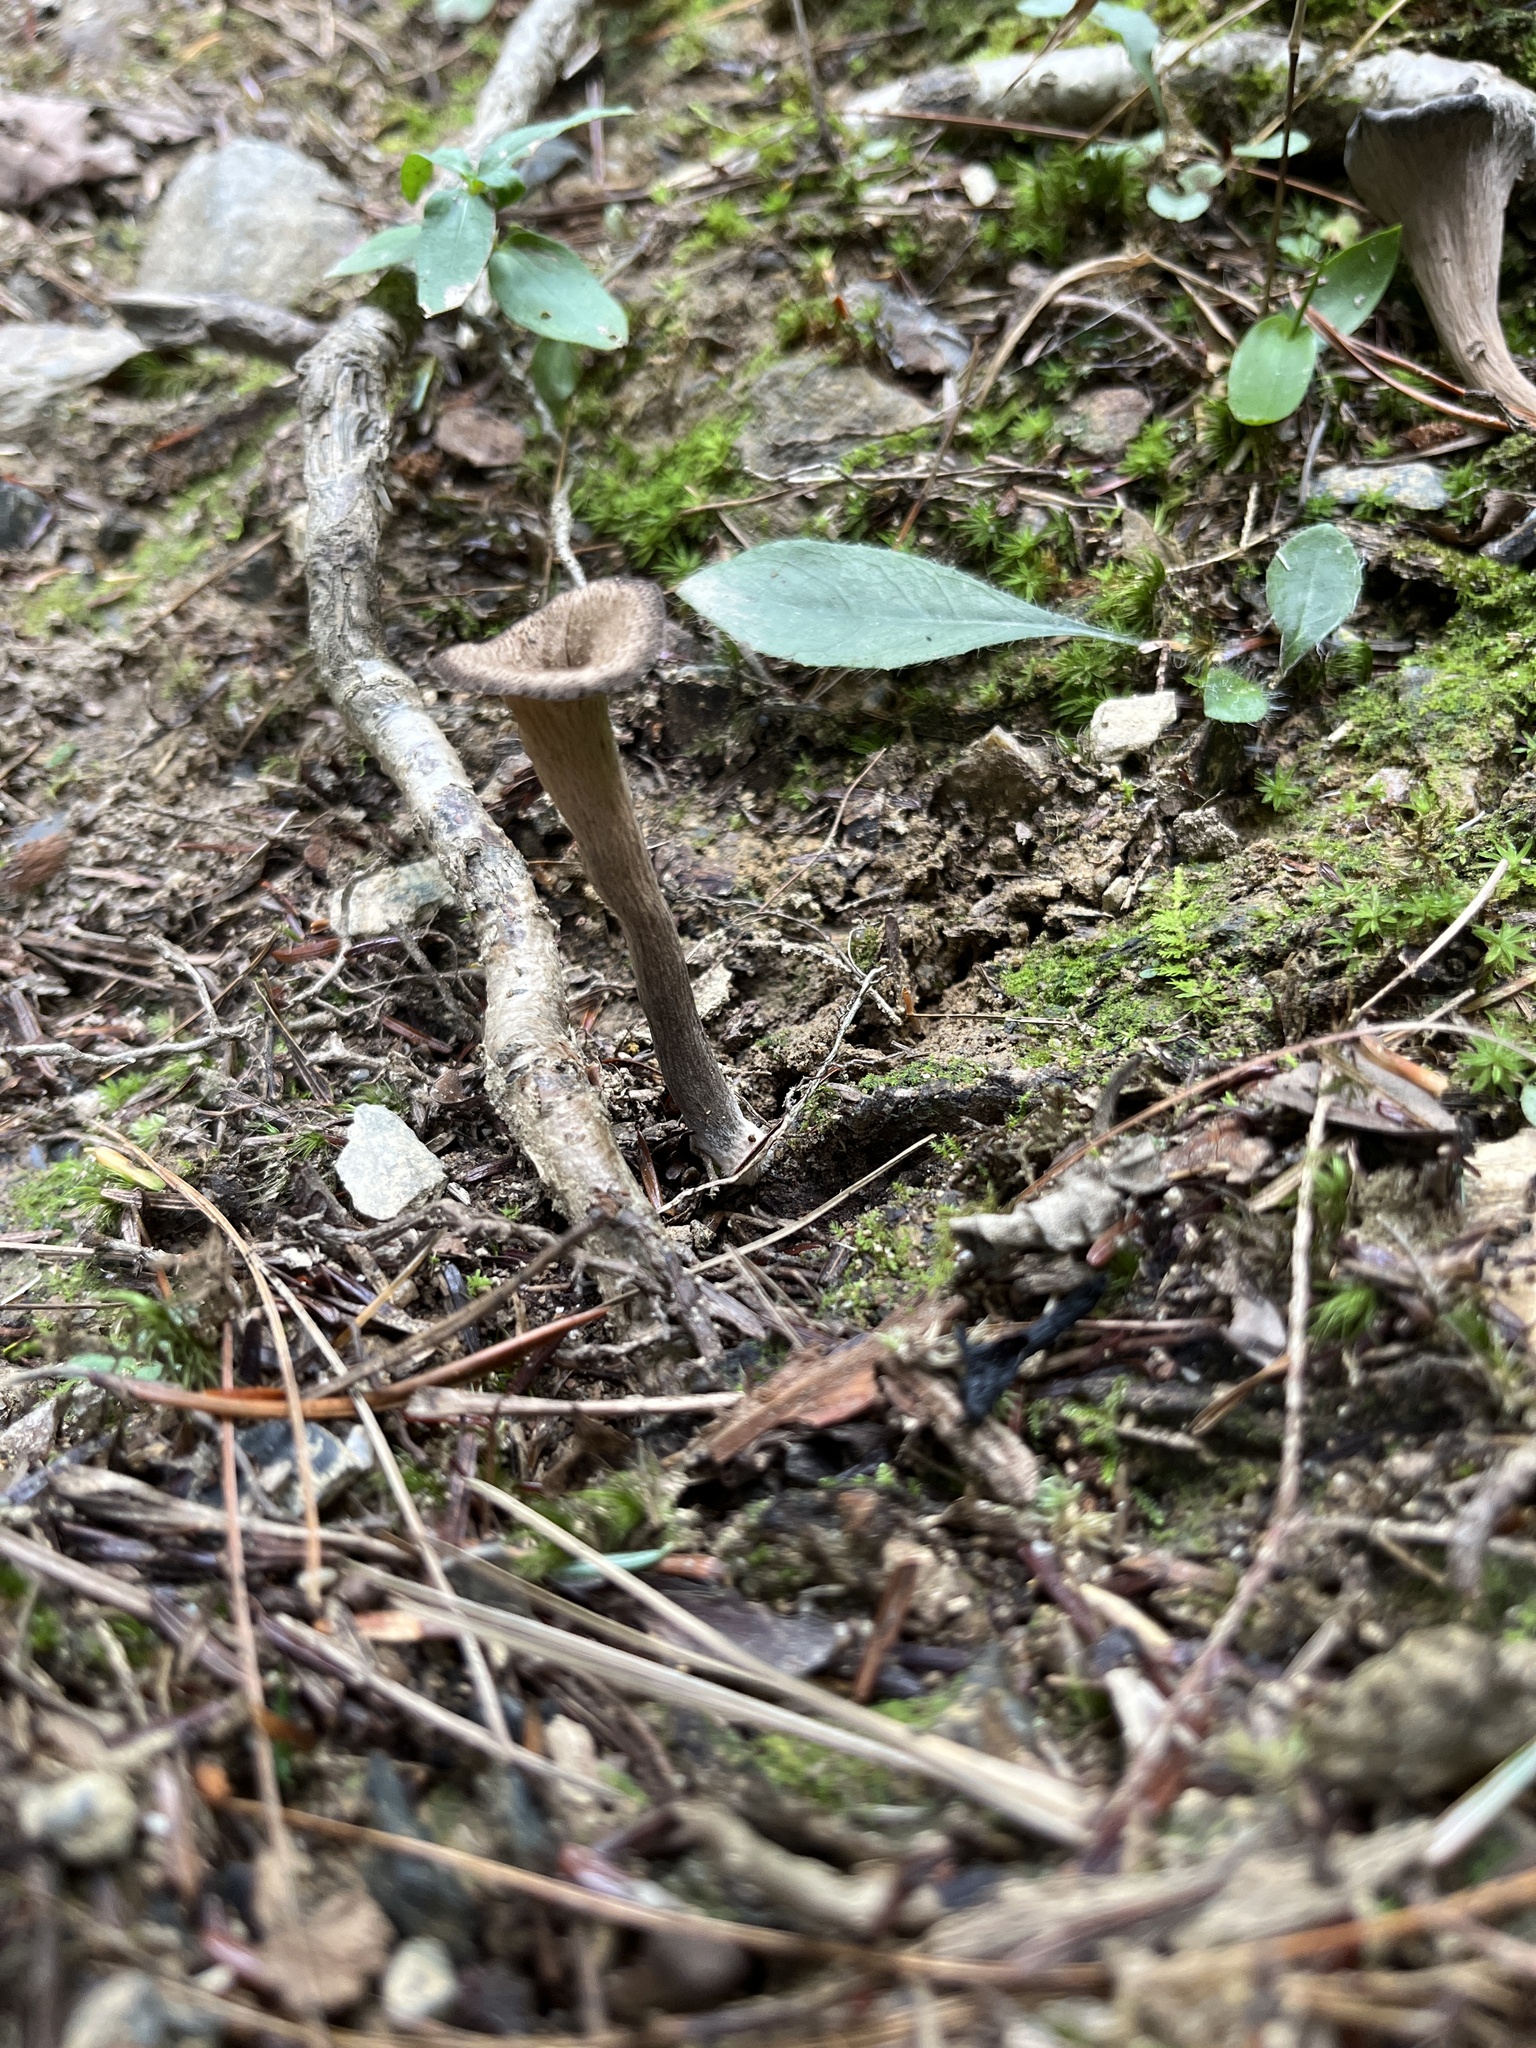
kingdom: Fungi
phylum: Basidiomycota
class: Agaricomycetes
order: Cantharellales
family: Hydnaceae
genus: Craterellus
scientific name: Craterellus cornucopioides
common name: Horn of plenty
